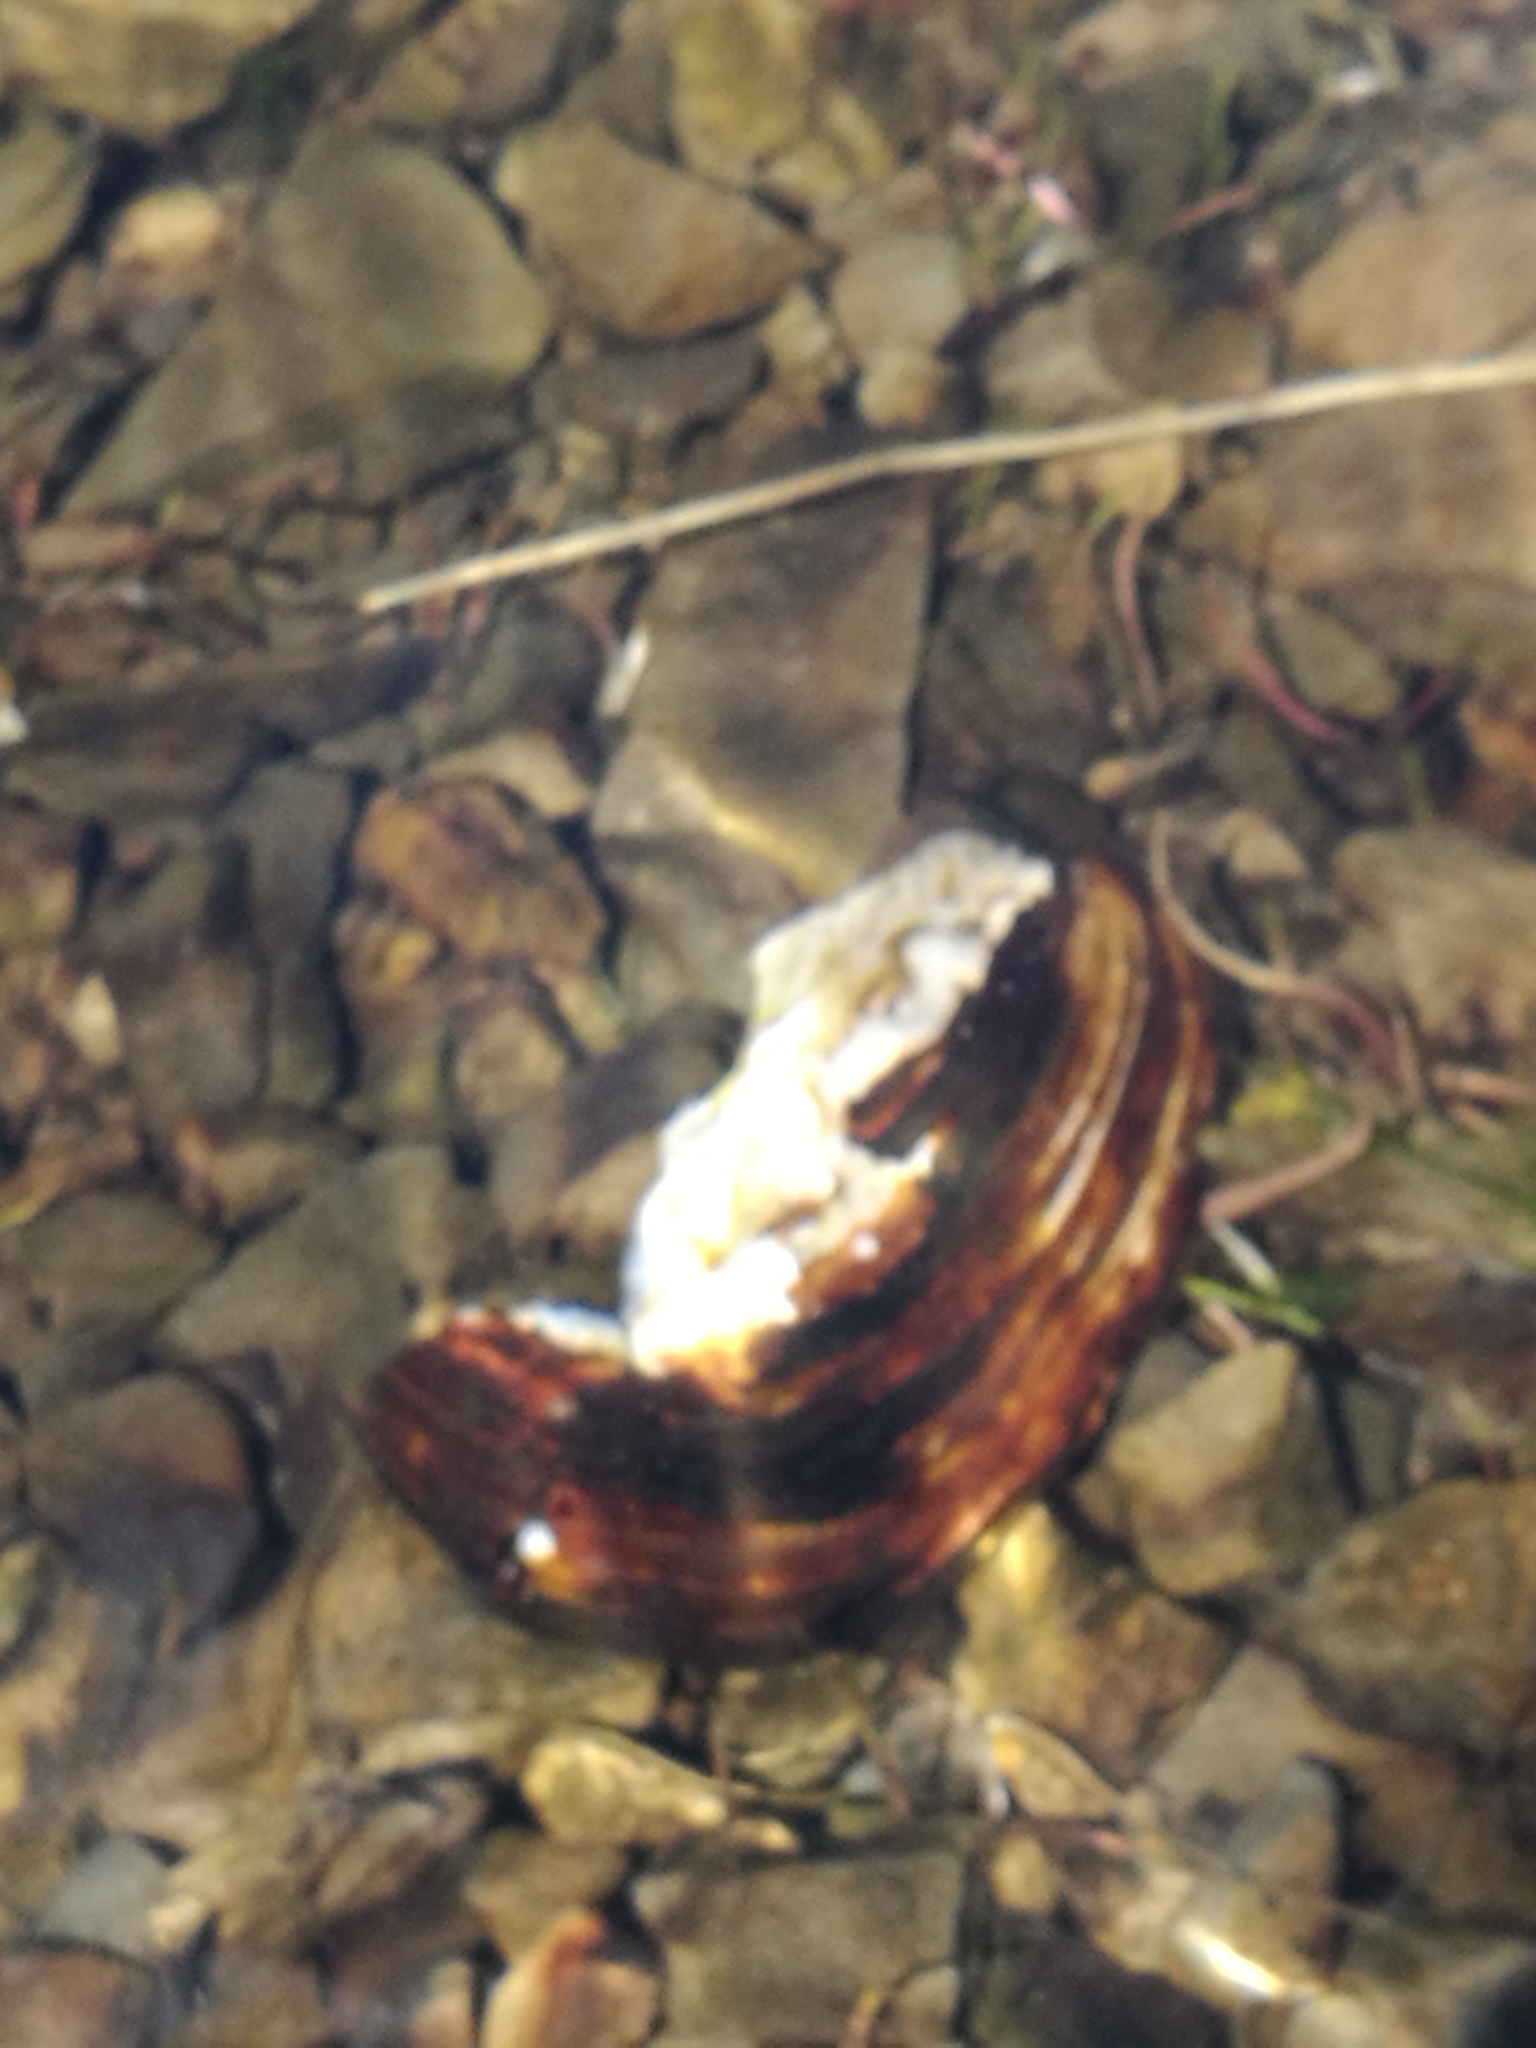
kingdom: Animalia
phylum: Mollusca
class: Bivalvia
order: Unionida
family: Hyriidae
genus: Echyridella
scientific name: Echyridella menziesii
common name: New zealand freshwater mussel
